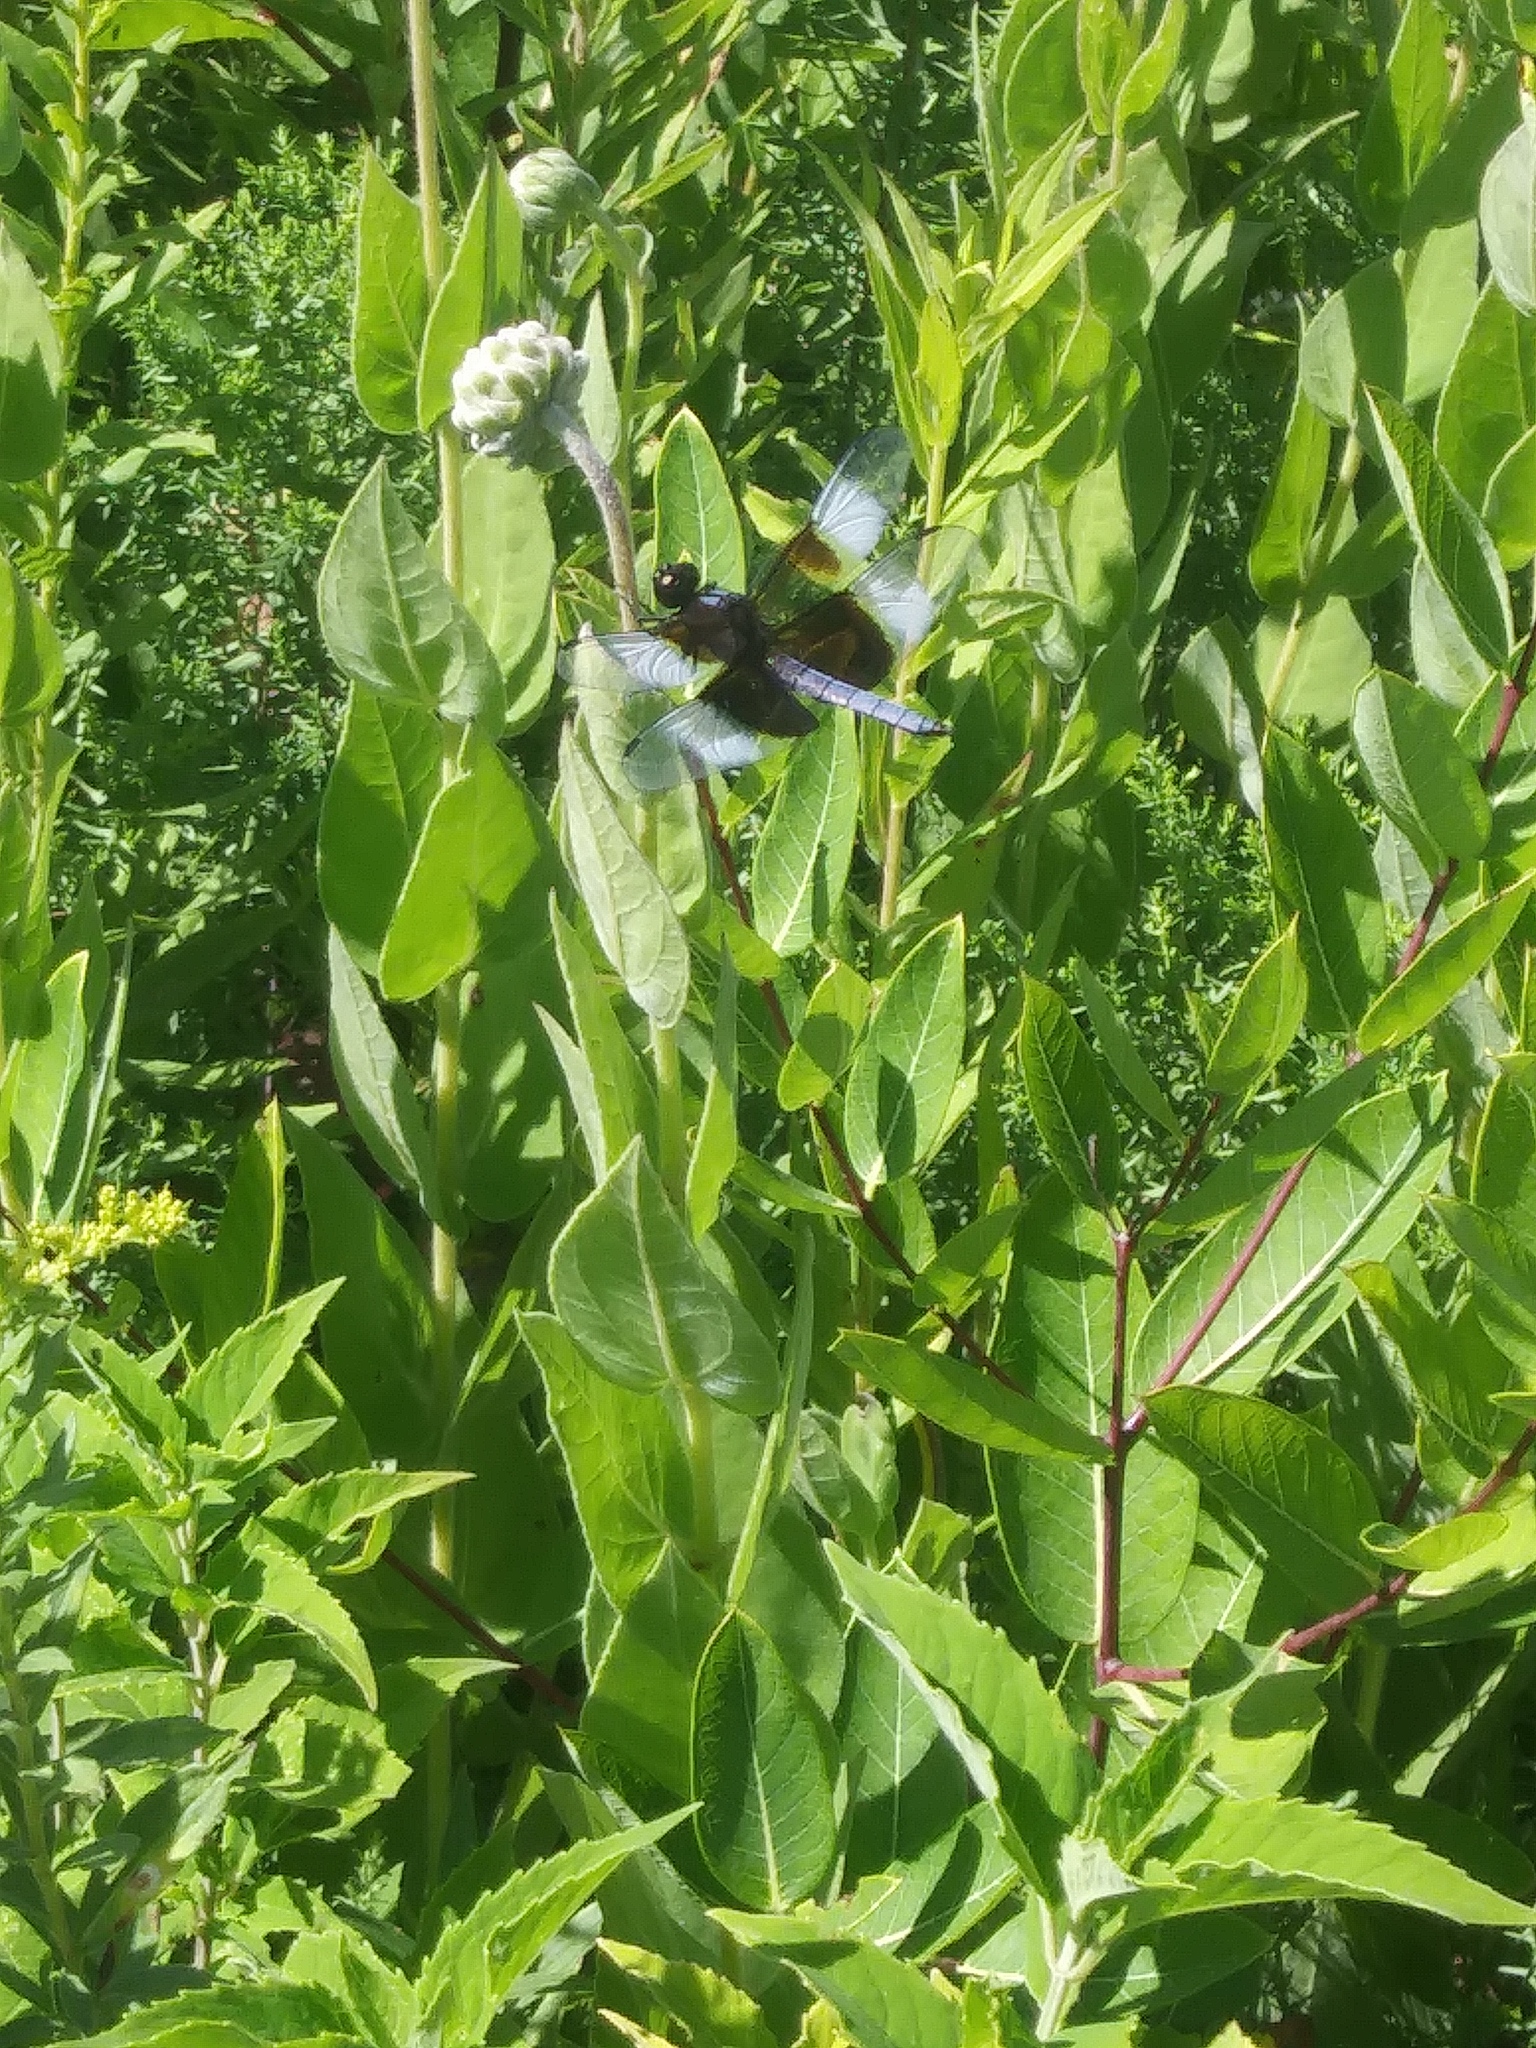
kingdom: Animalia
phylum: Arthropoda
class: Insecta
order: Odonata
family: Libellulidae
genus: Libellula
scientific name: Libellula luctuosa
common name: Widow skimmer
